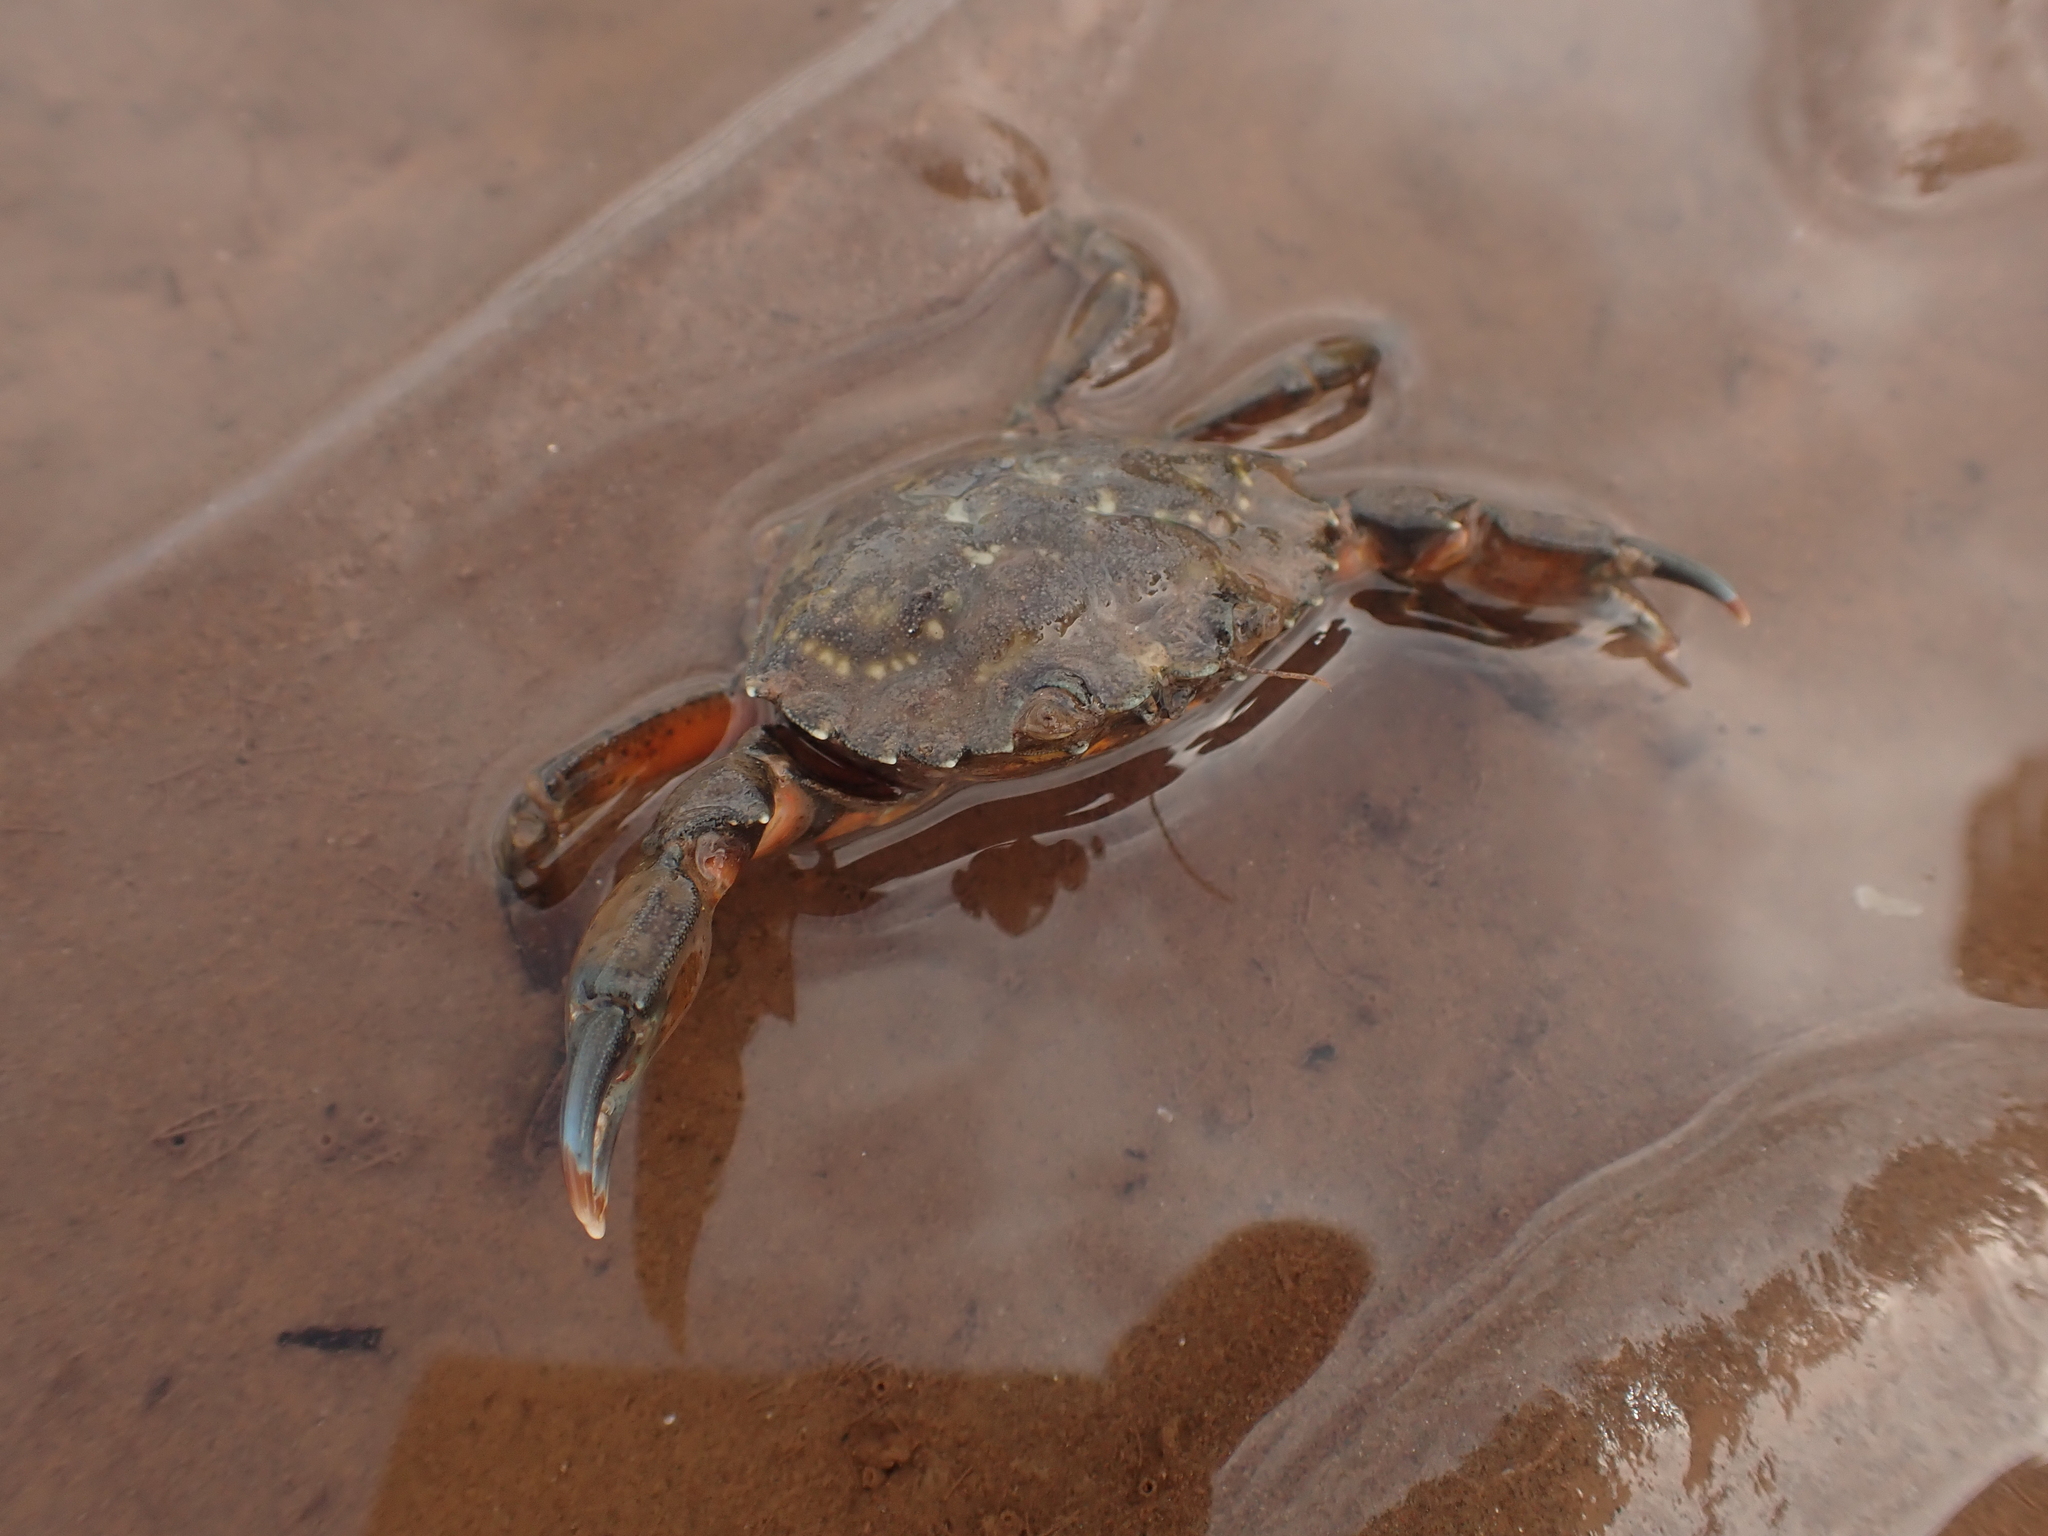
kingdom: Animalia
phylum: Arthropoda
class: Malacostraca
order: Decapoda
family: Carcinidae
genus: Carcinus
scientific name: Carcinus maenas
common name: European green crab
